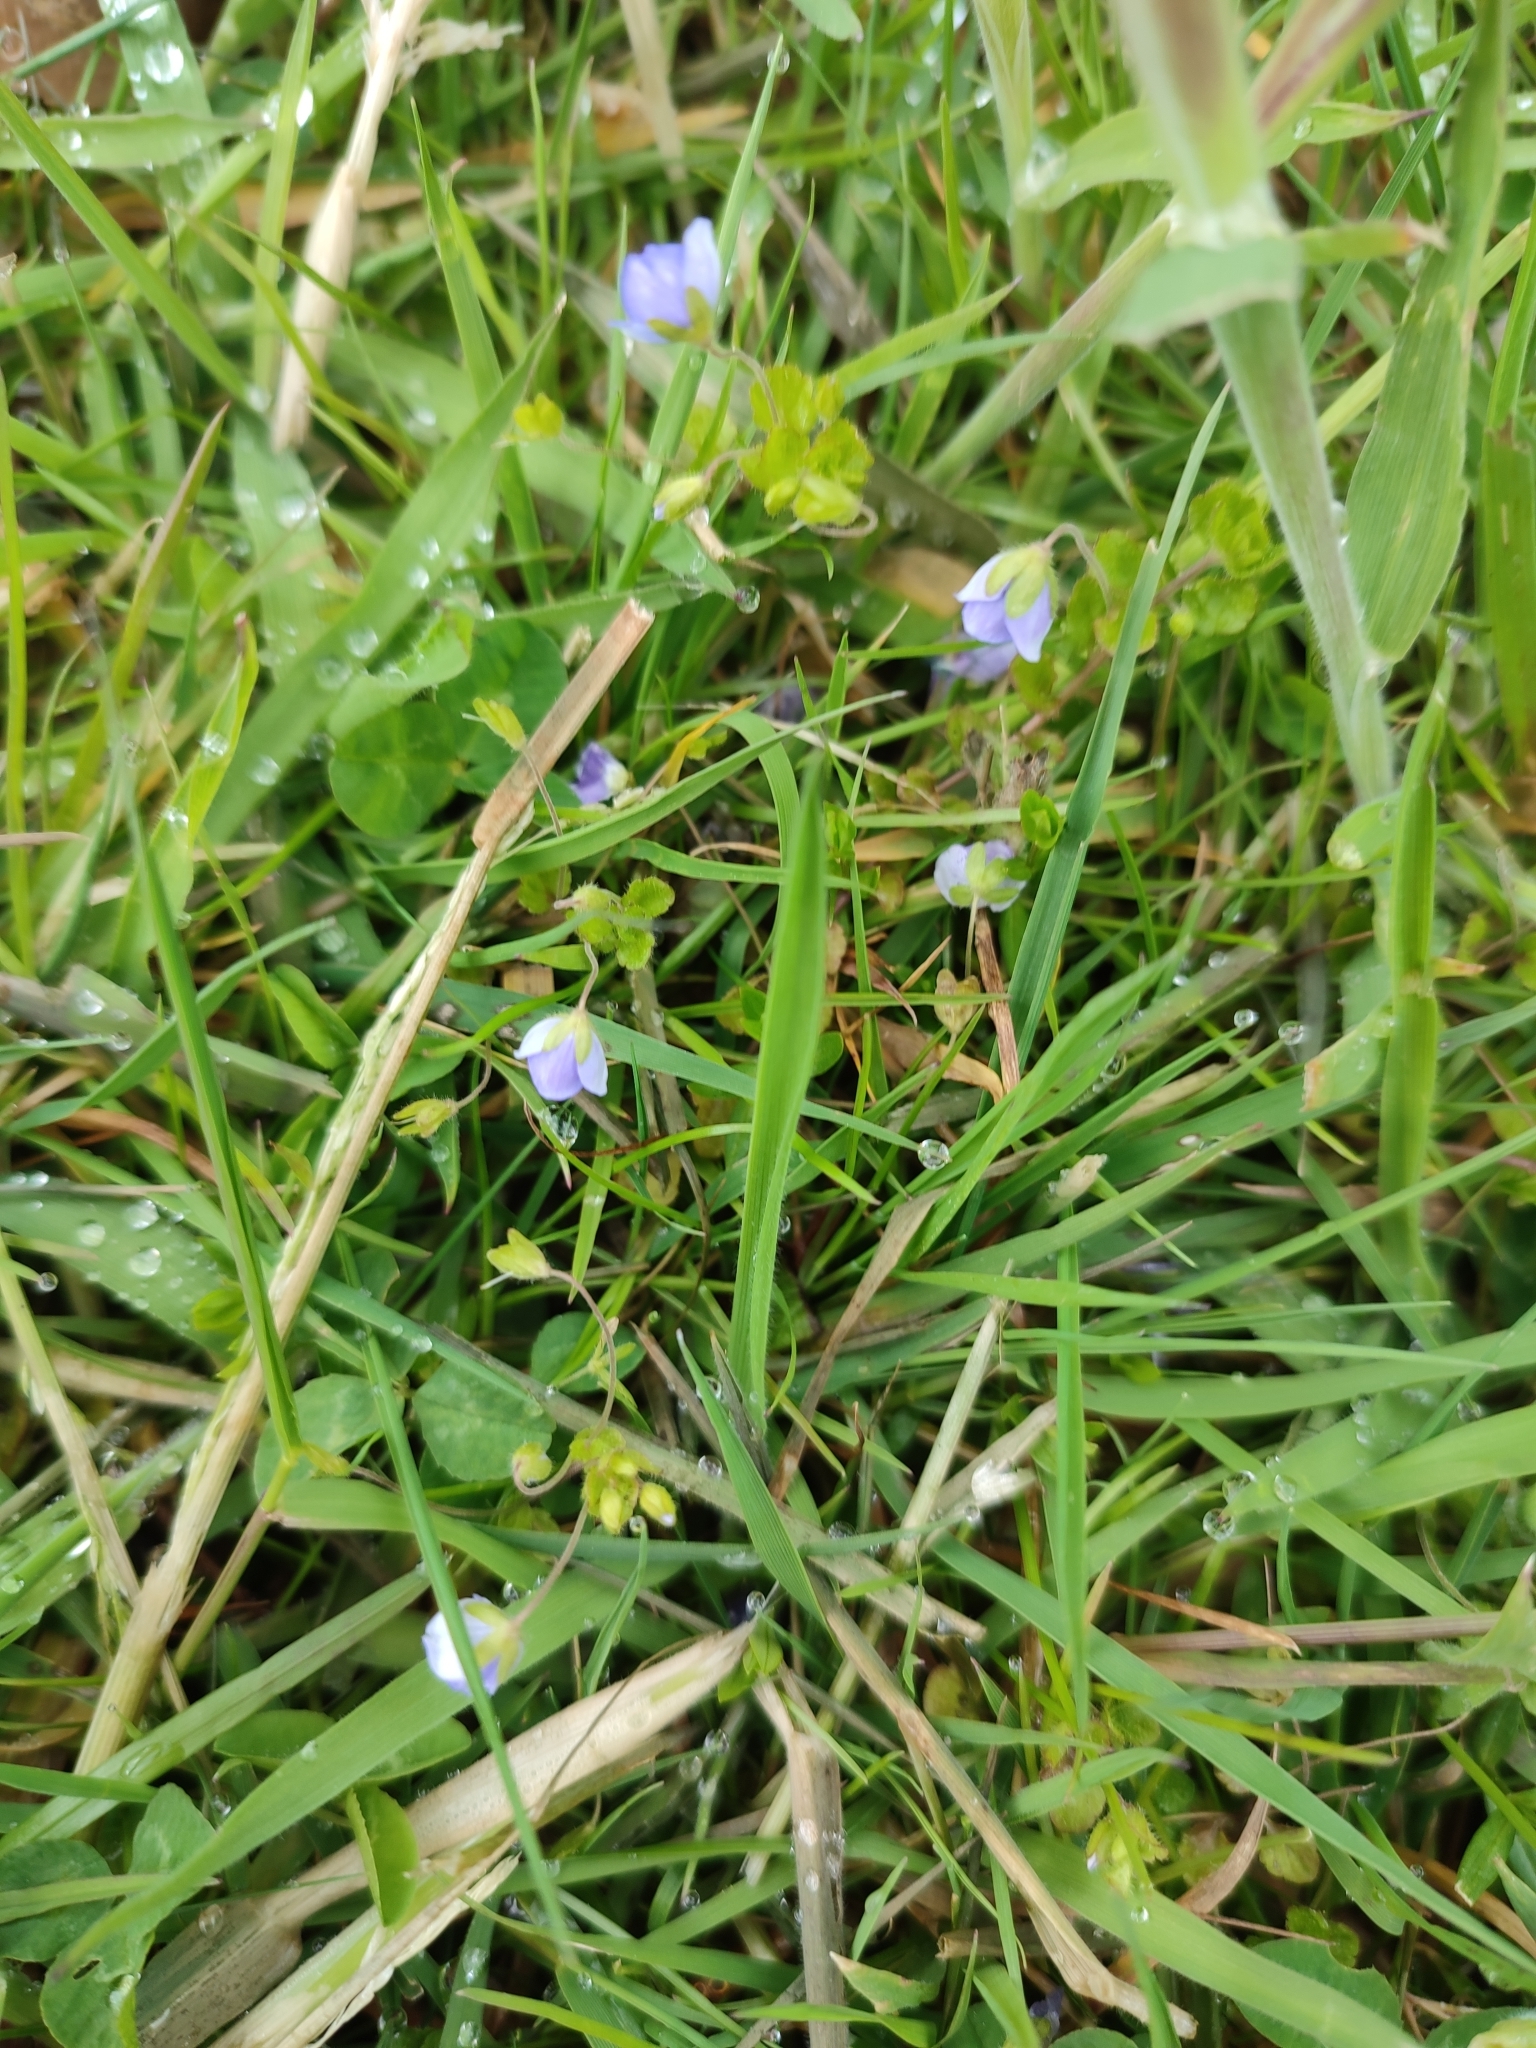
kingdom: Plantae
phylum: Tracheophyta
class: Magnoliopsida
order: Lamiales
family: Plantaginaceae
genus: Veronica
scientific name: Veronica filiformis
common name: Slender speedwell
